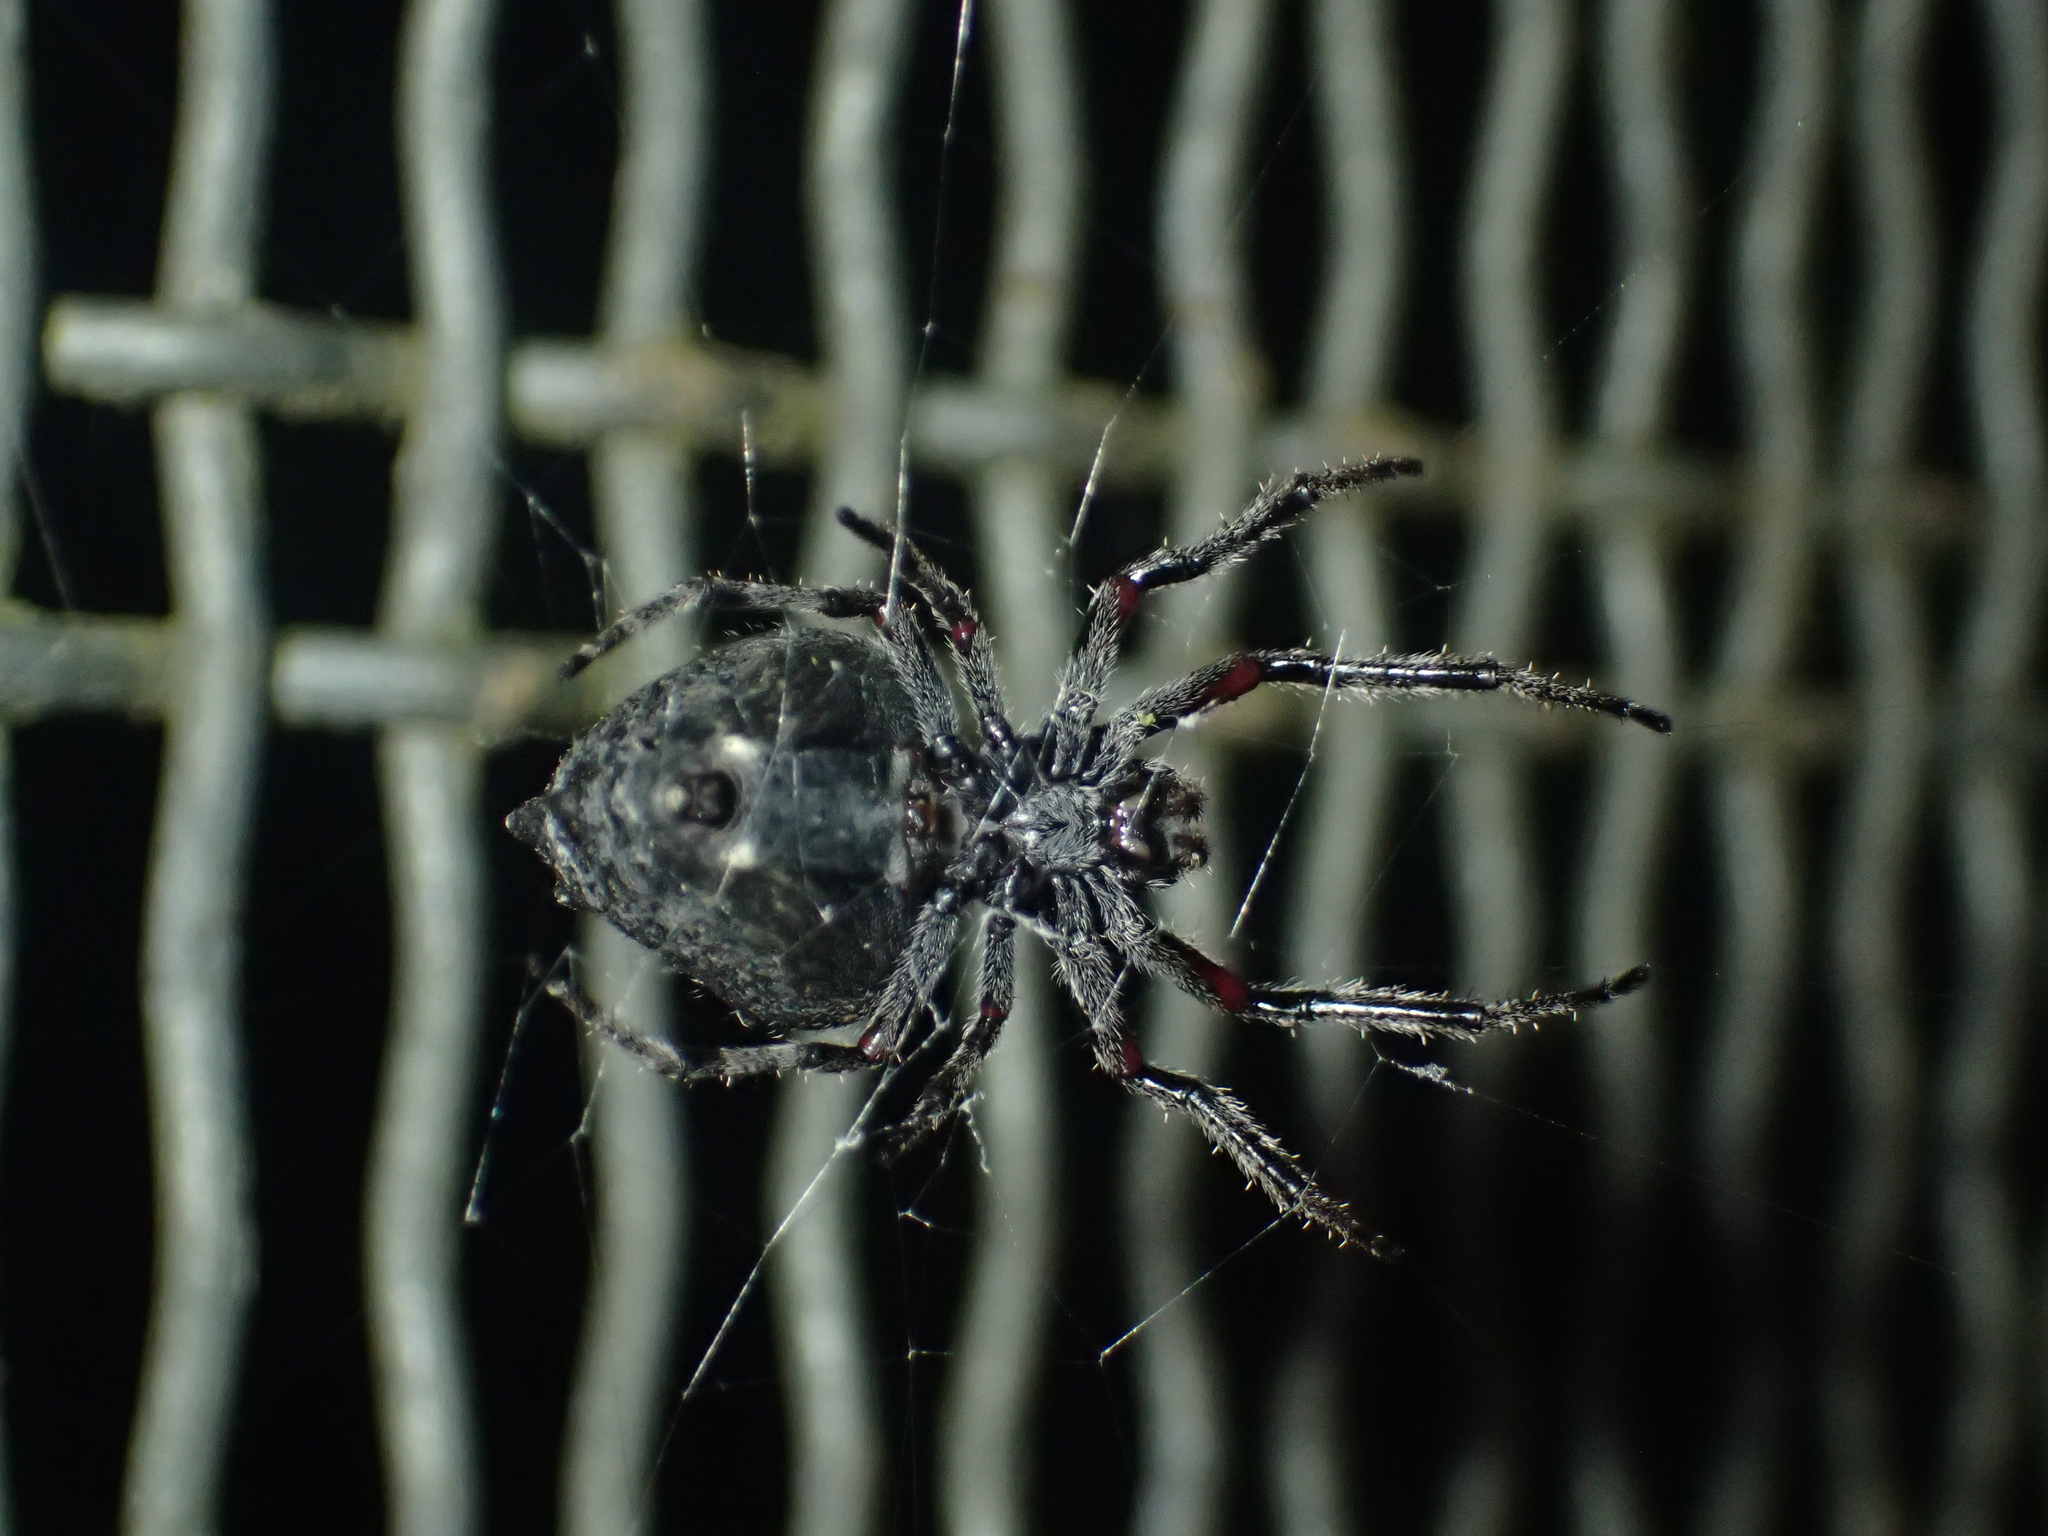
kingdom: Animalia
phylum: Arthropoda
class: Arachnida
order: Araneae
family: Araneidae
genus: Eriophora
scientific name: Eriophora pustulosa
